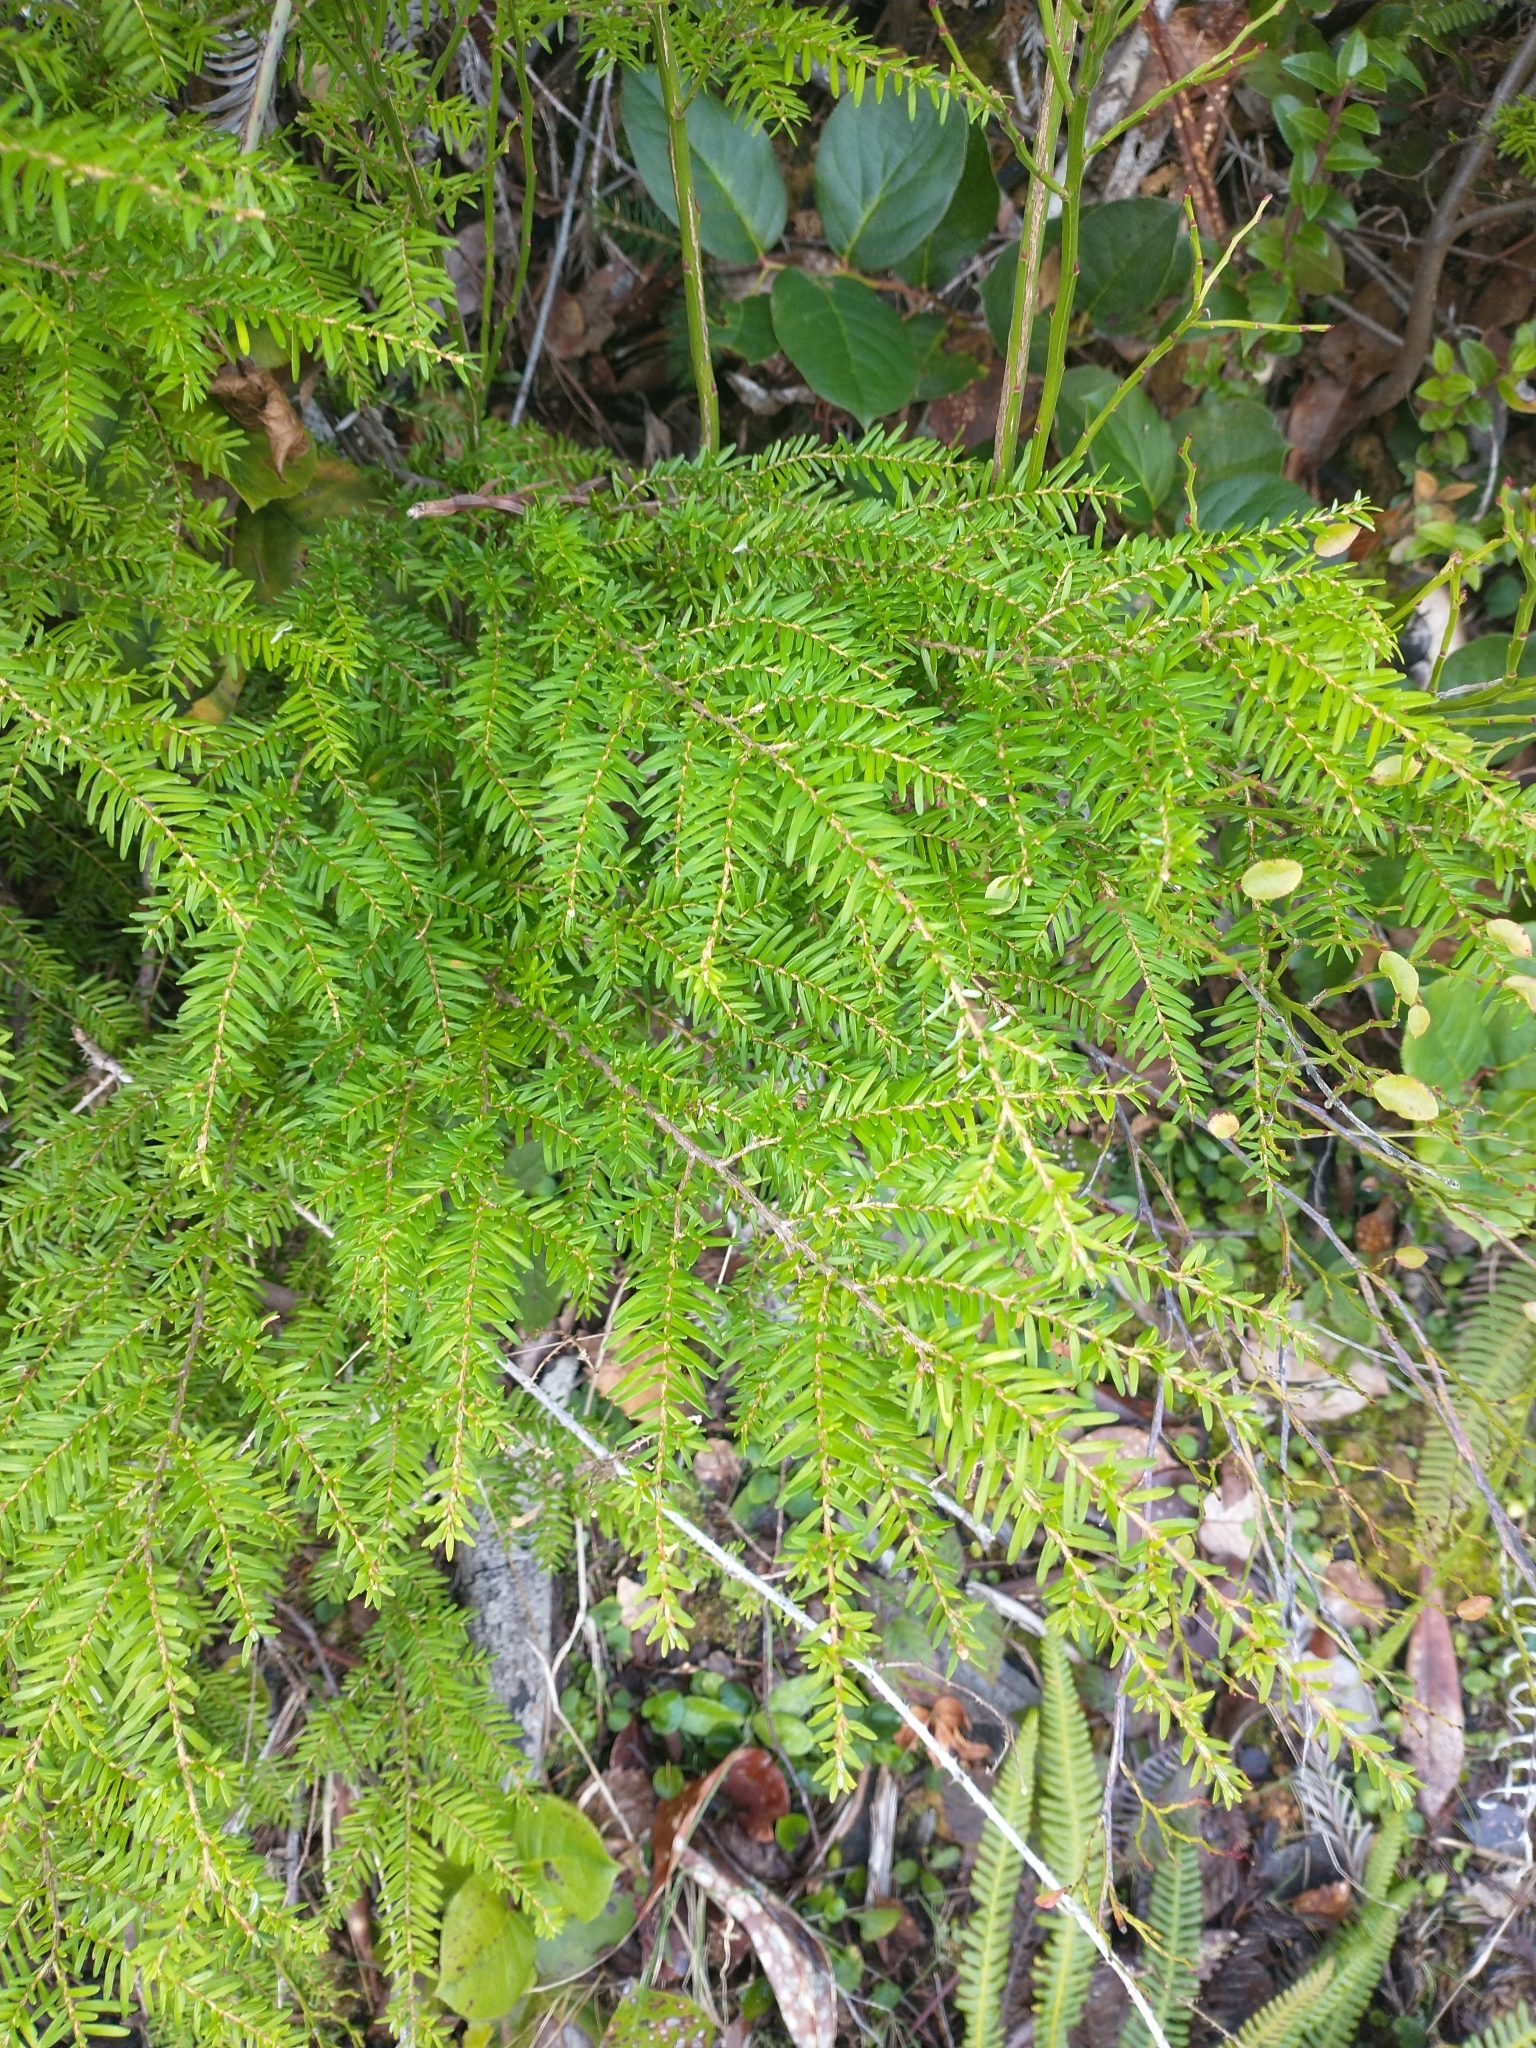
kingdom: Plantae
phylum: Tracheophyta
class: Pinopsida
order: Pinales
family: Pinaceae
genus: Tsuga
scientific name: Tsuga heterophylla
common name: Western hemlock
